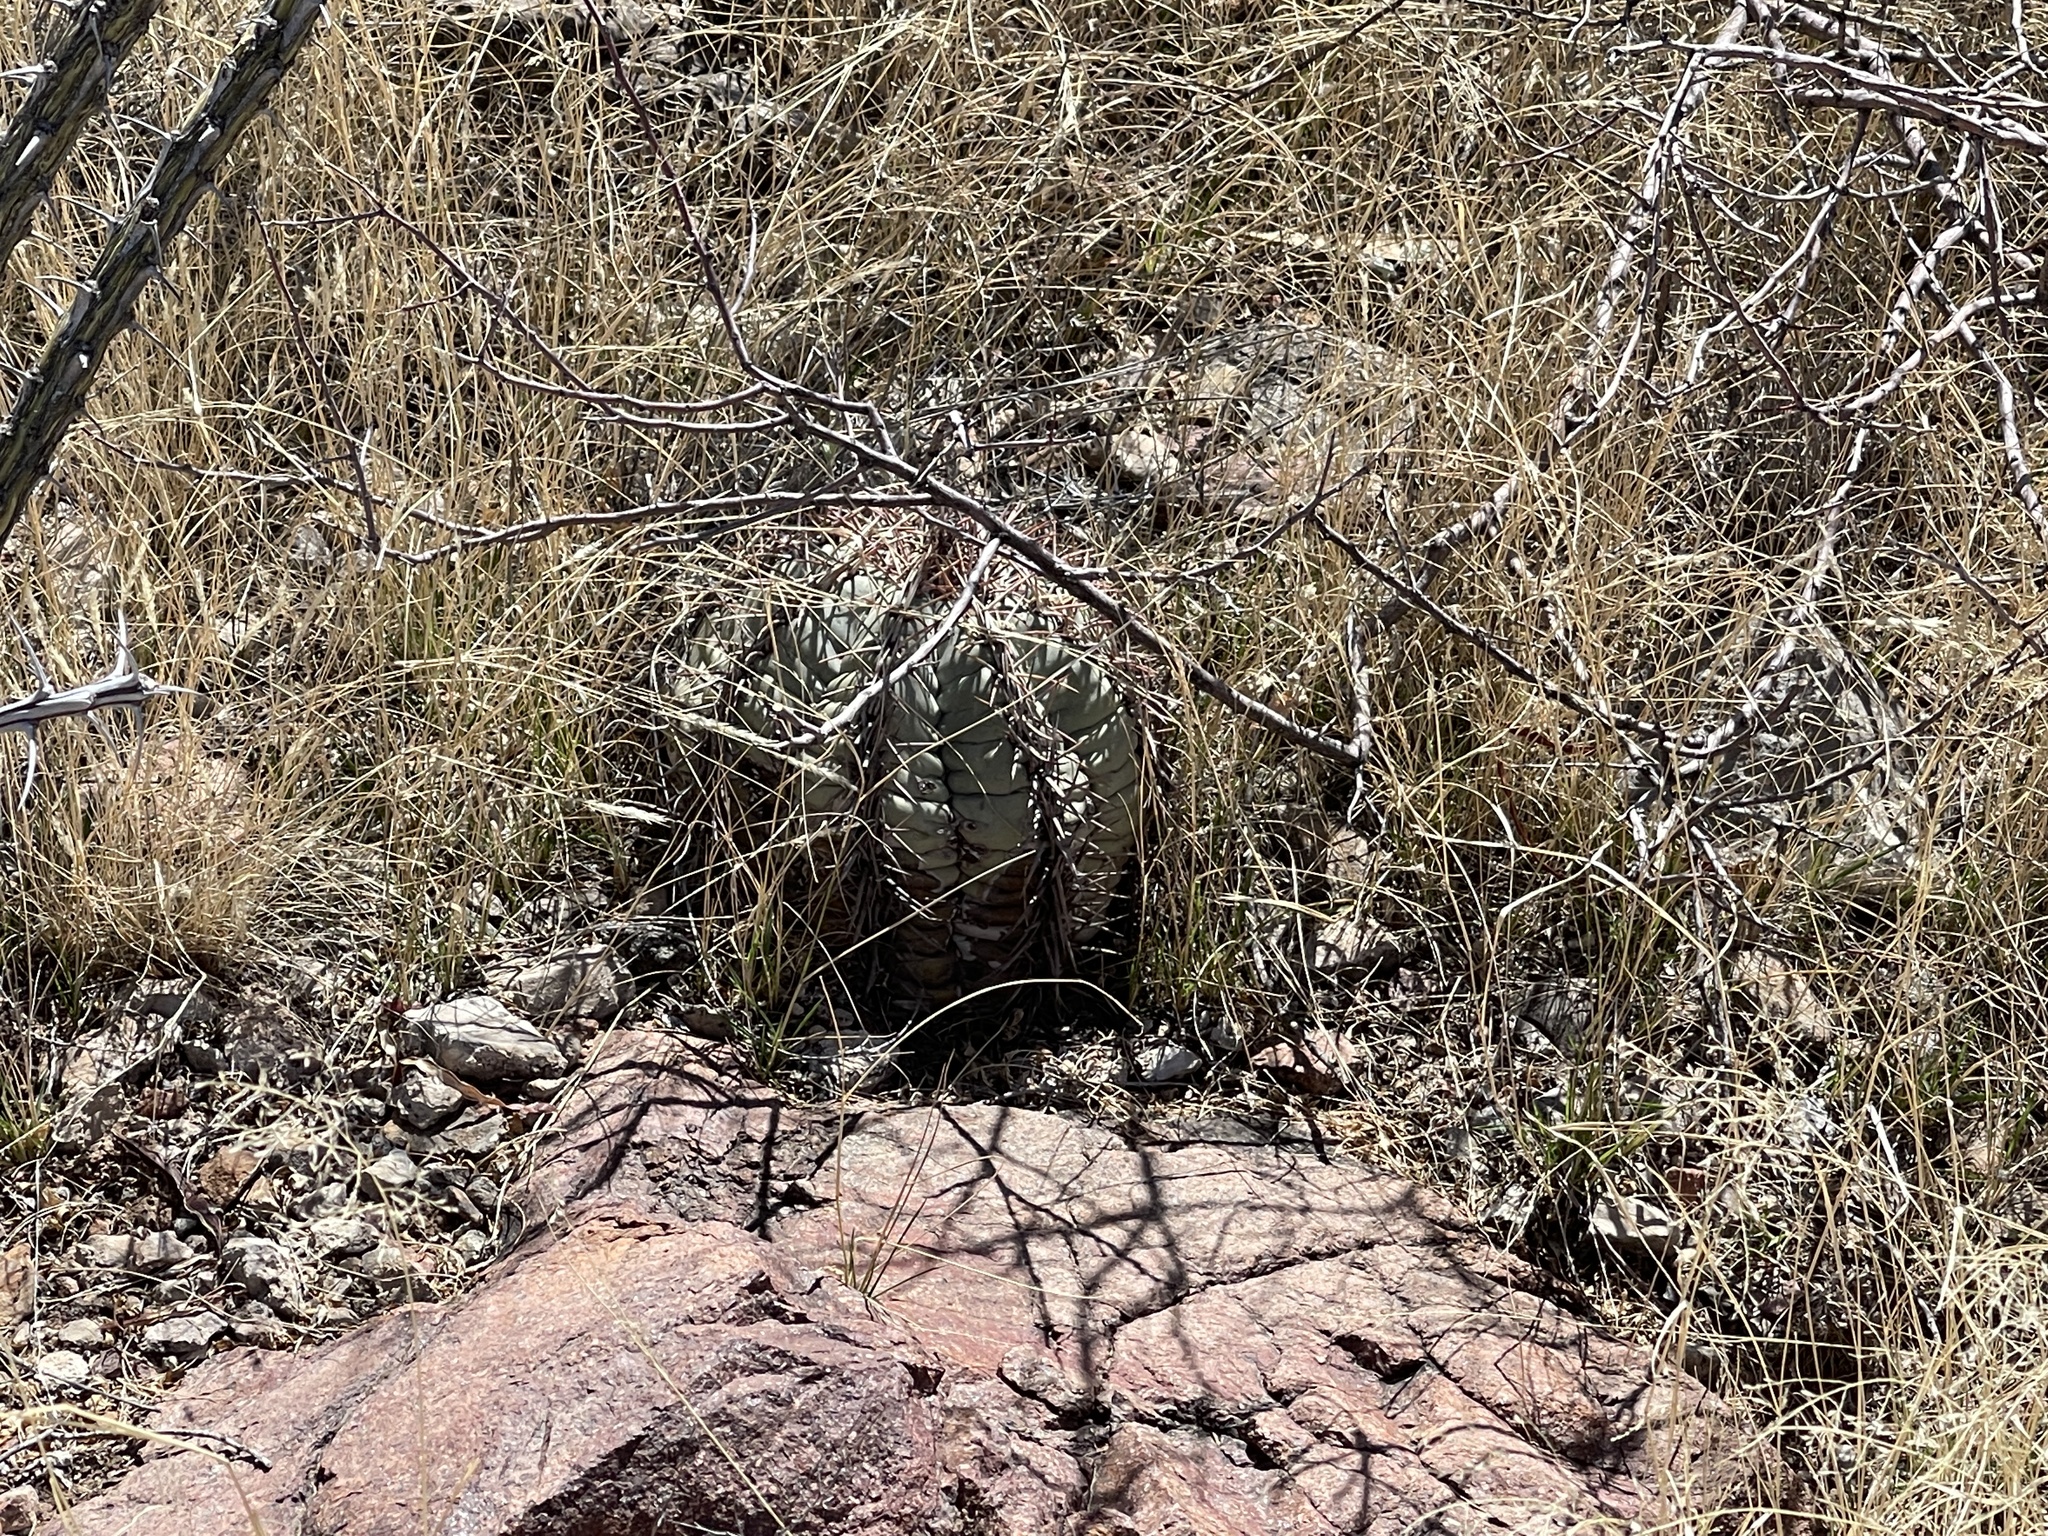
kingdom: Plantae
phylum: Tracheophyta
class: Magnoliopsida
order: Caryophyllales
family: Cactaceae
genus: Echinocactus
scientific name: Echinocactus horizonthalonius
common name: Devilshead
